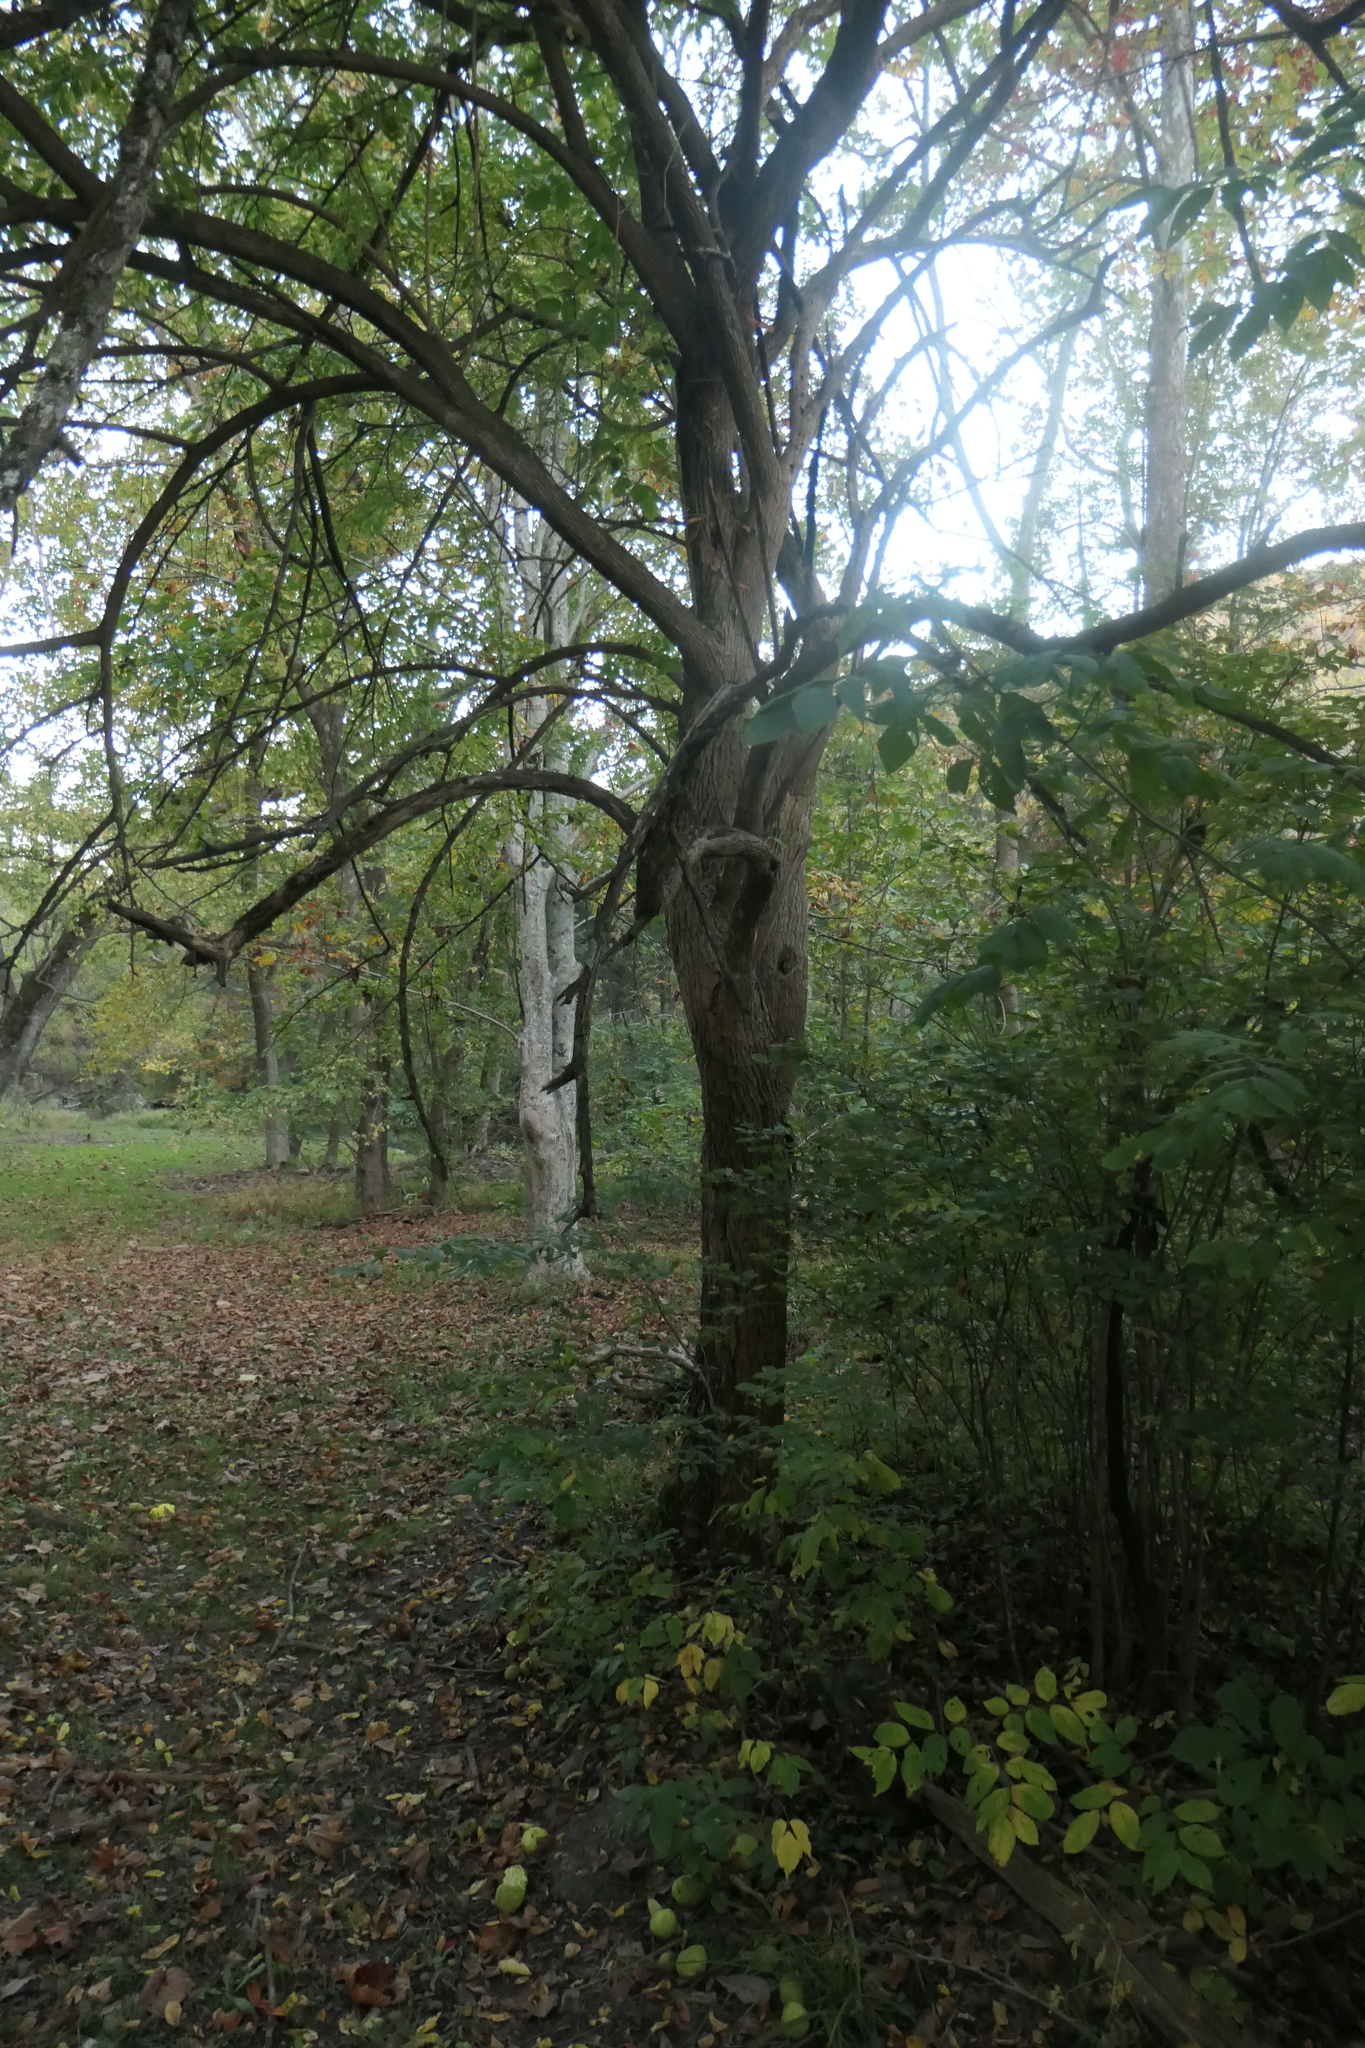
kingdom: Plantae
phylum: Tracheophyta
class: Magnoliopsida
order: Rosales
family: Moraceae
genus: Maclura
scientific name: Maclura pomifera
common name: Osage-orange
